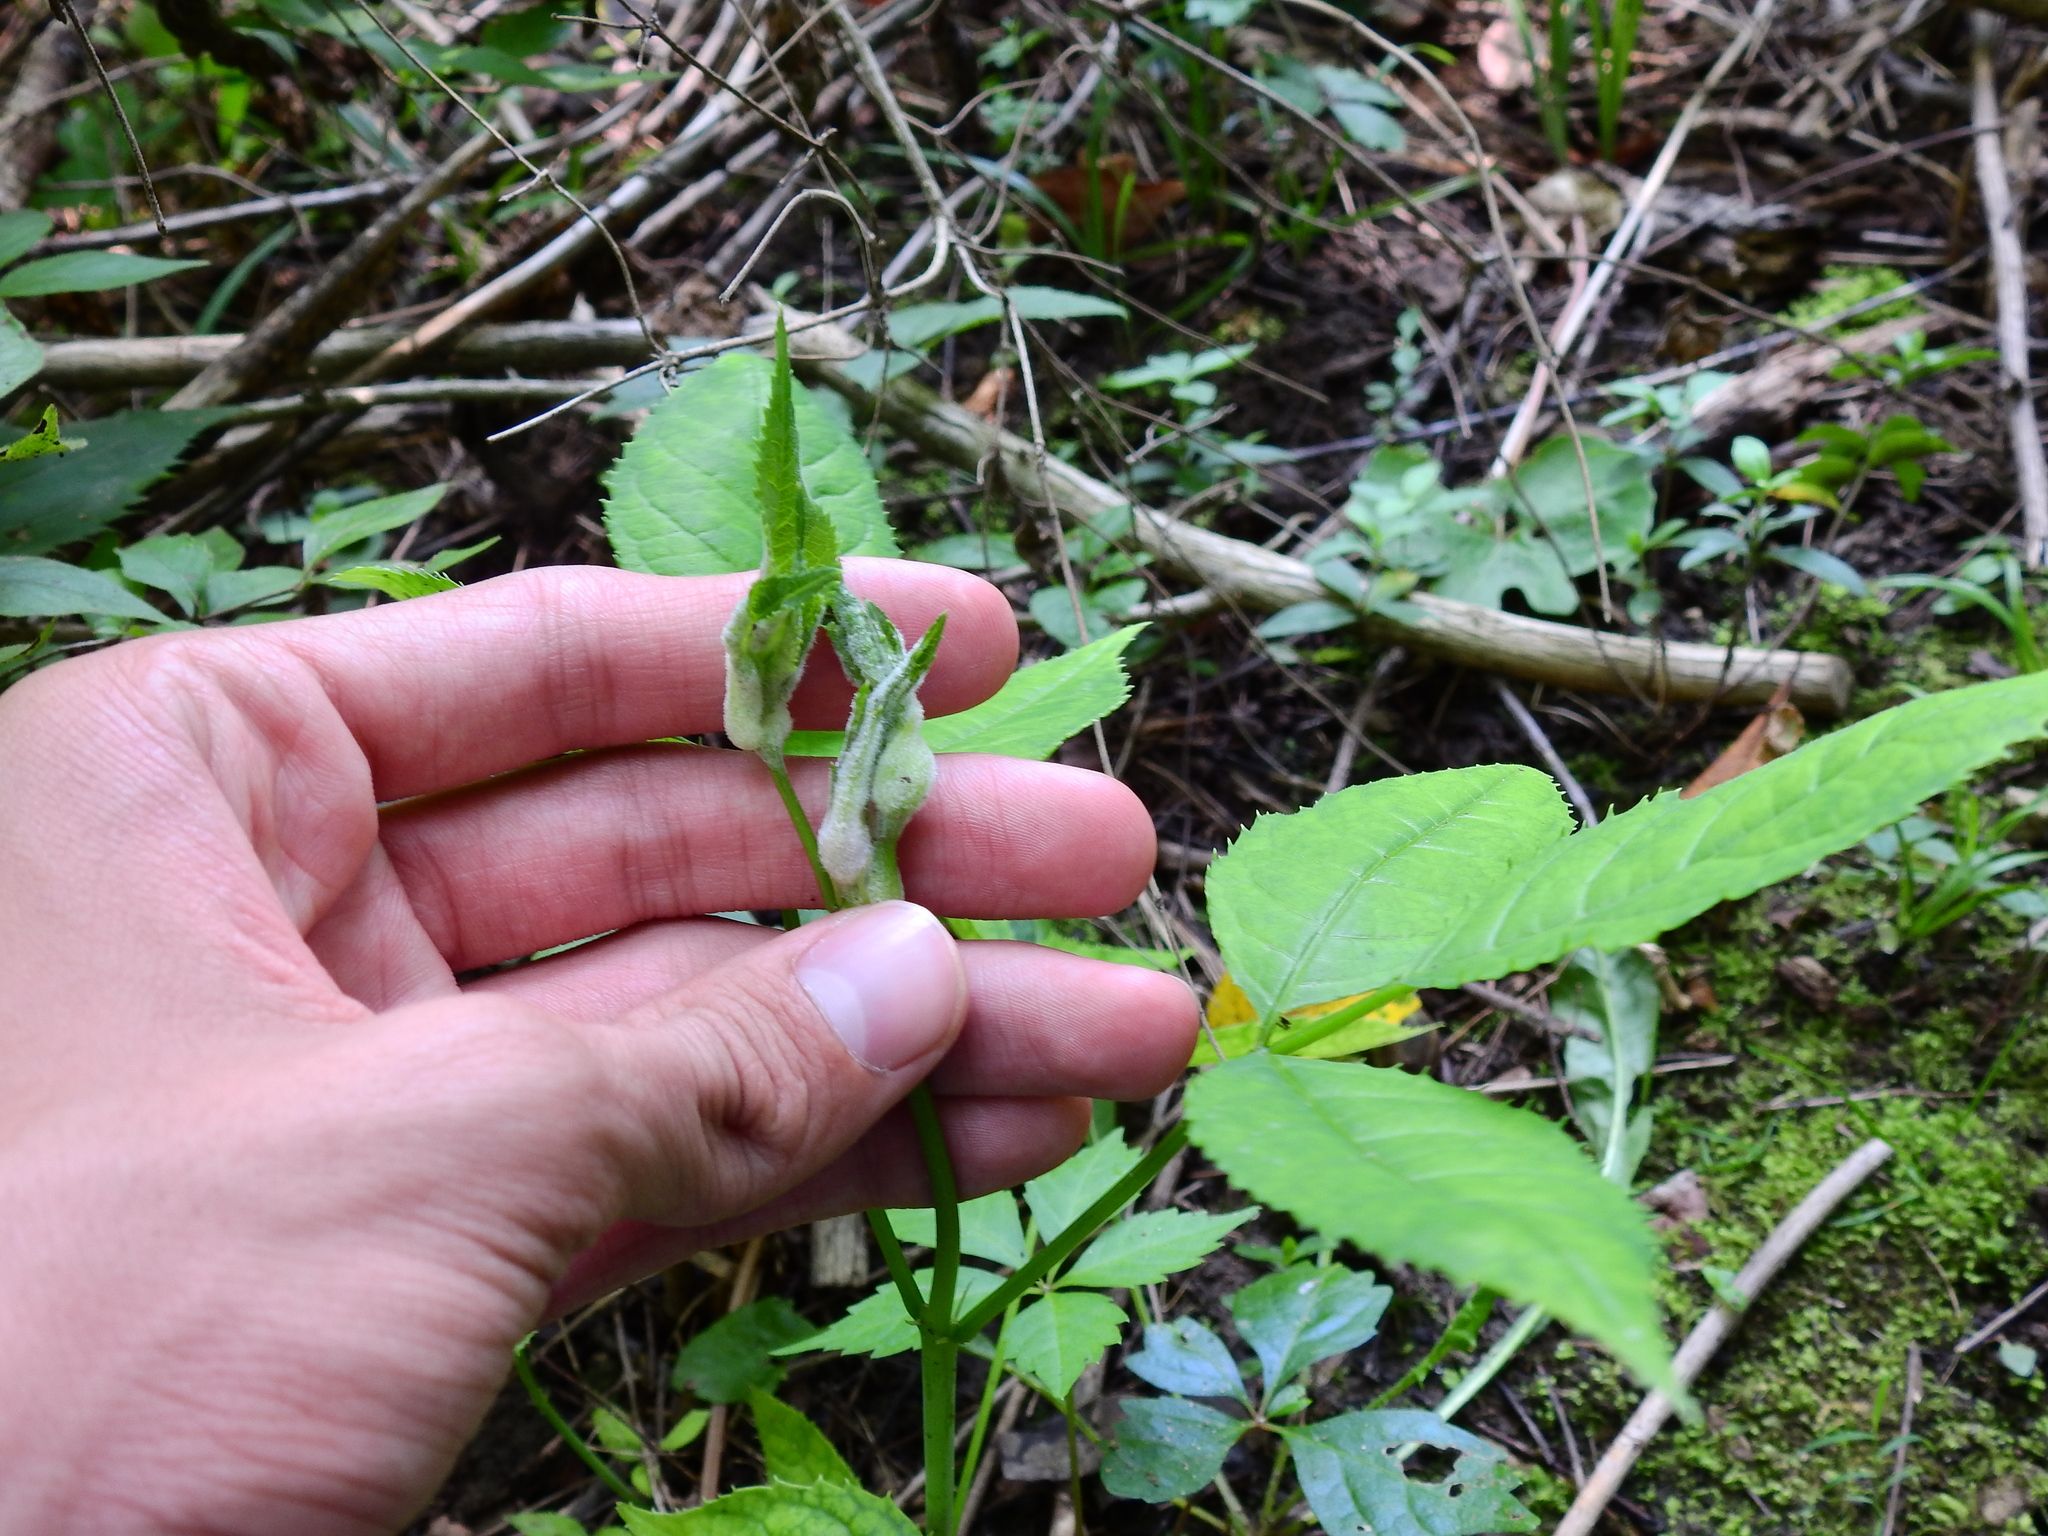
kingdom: Animalia
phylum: Arthropoda
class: Insecta
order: Diptera
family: Cecidomyiidae
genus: Asphondylia
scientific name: Asphondylia sambuci
